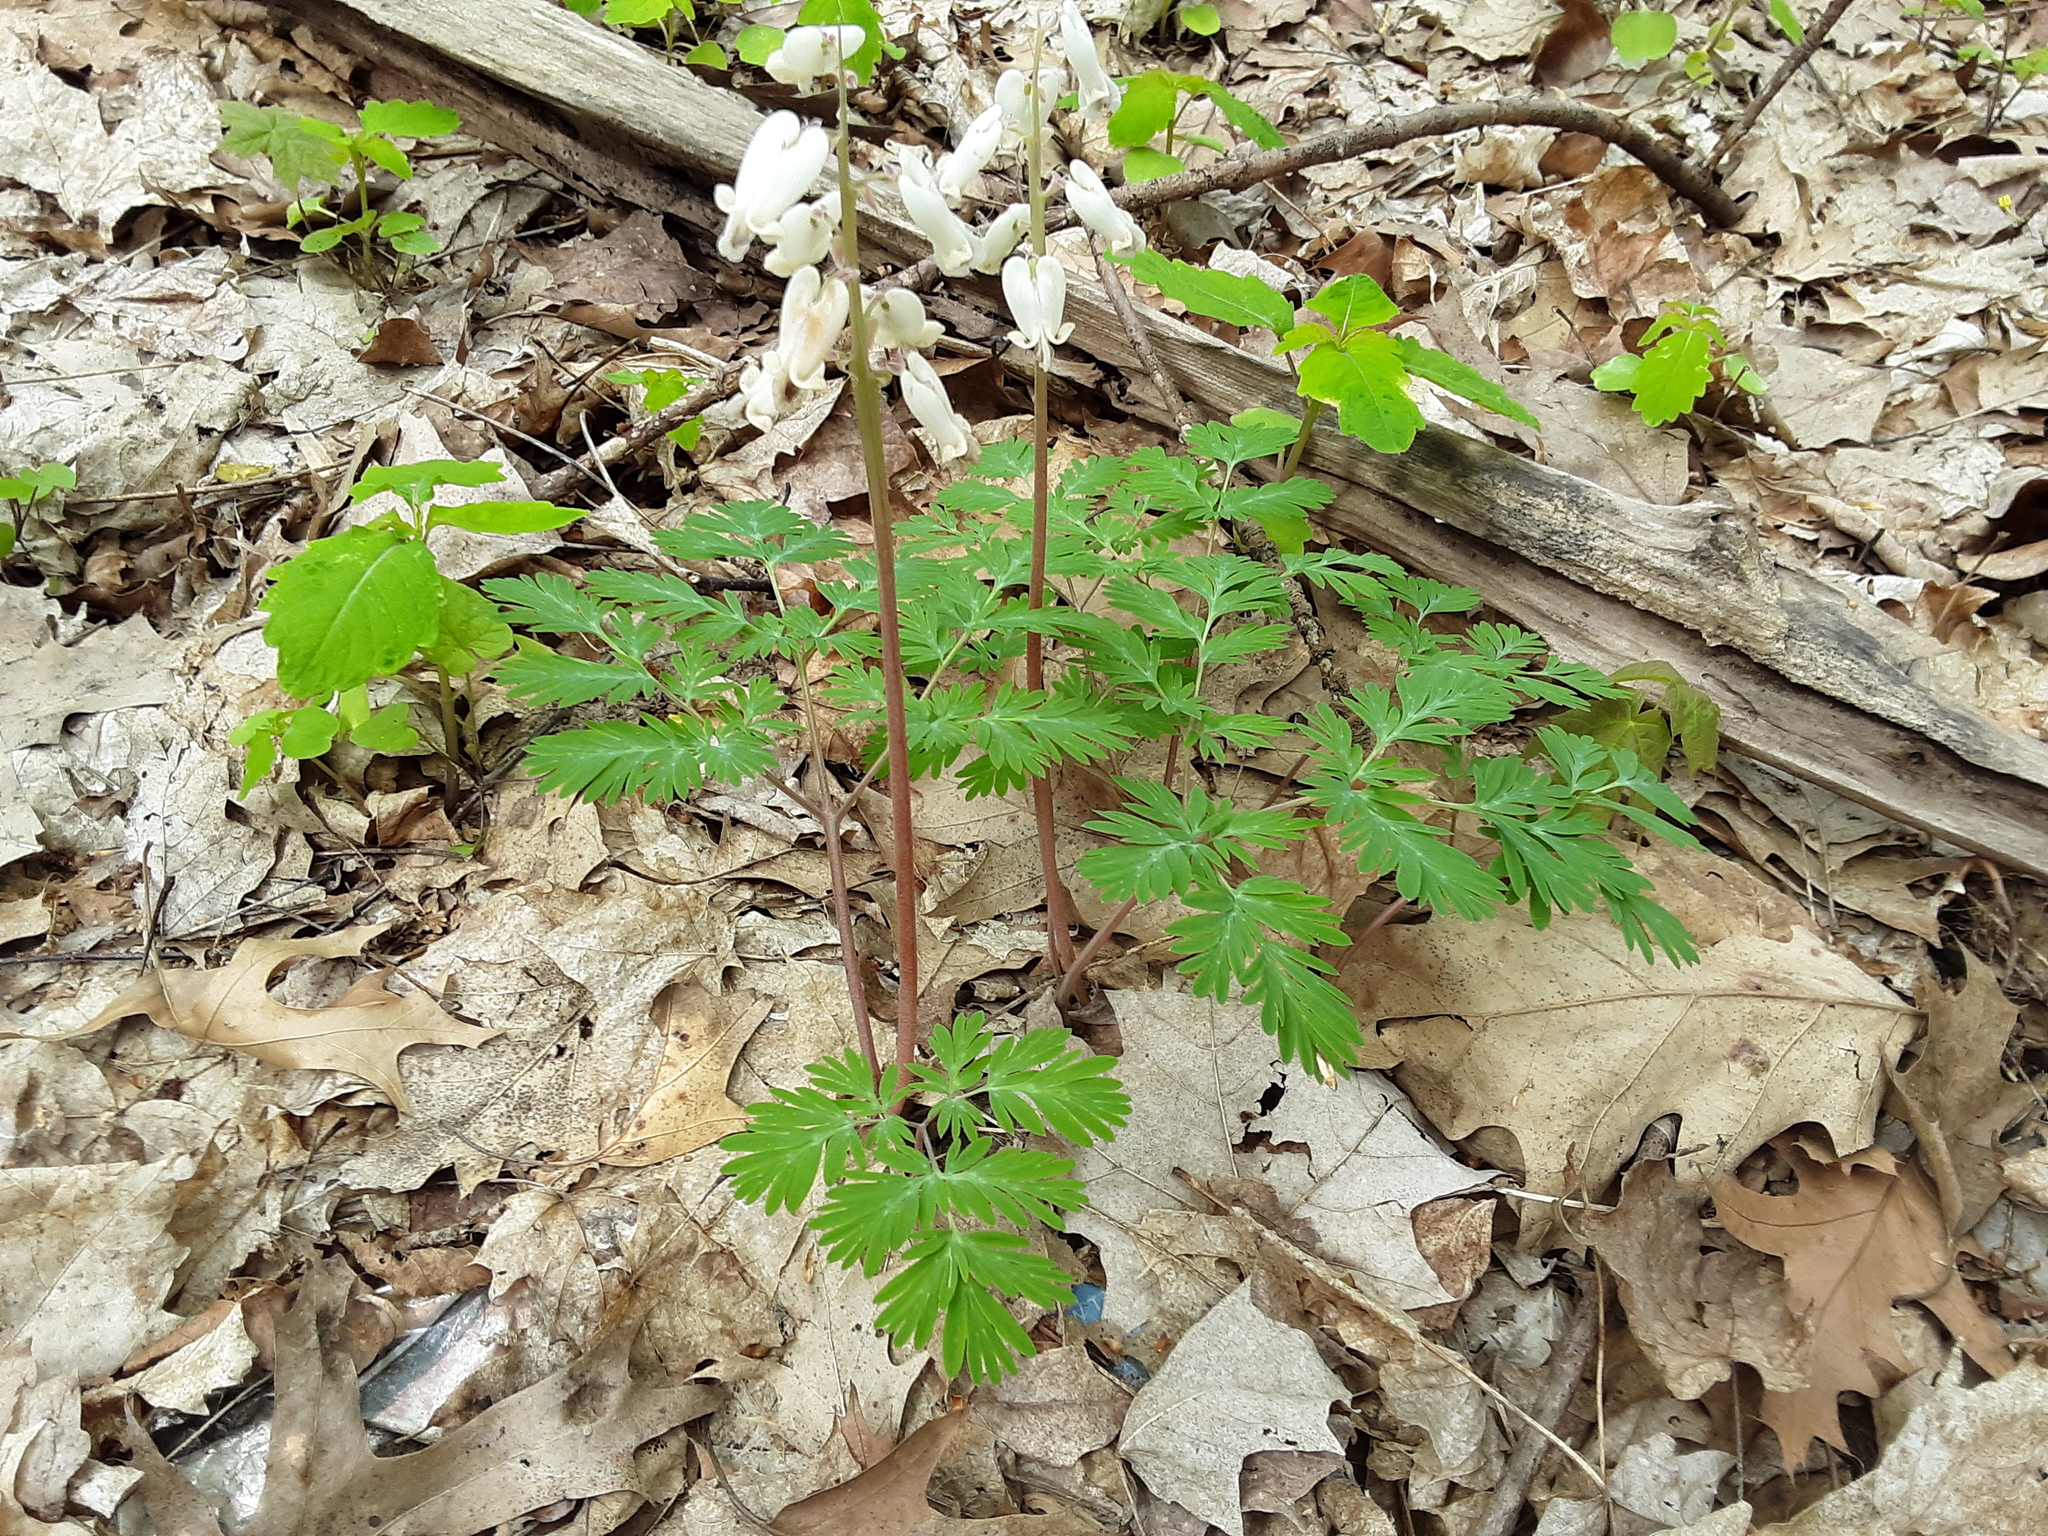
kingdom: Plantae
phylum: Tracheophyta
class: Magnoliopsida
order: Ranunculales
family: Papaveraceae
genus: Dicentra
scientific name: Dicentra canadensis
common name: Squirrel-corn
